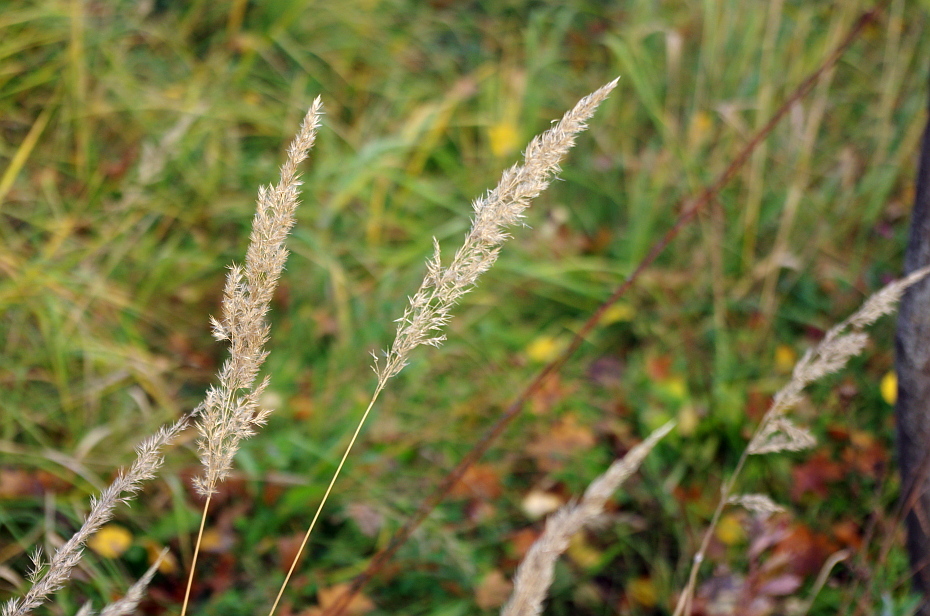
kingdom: Plantae
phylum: Tracheophyta
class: Liliopsida
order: Poales
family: Poaceae
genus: Calamagrostis
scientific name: Calamagrostis epigejos
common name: Wood small-reed
